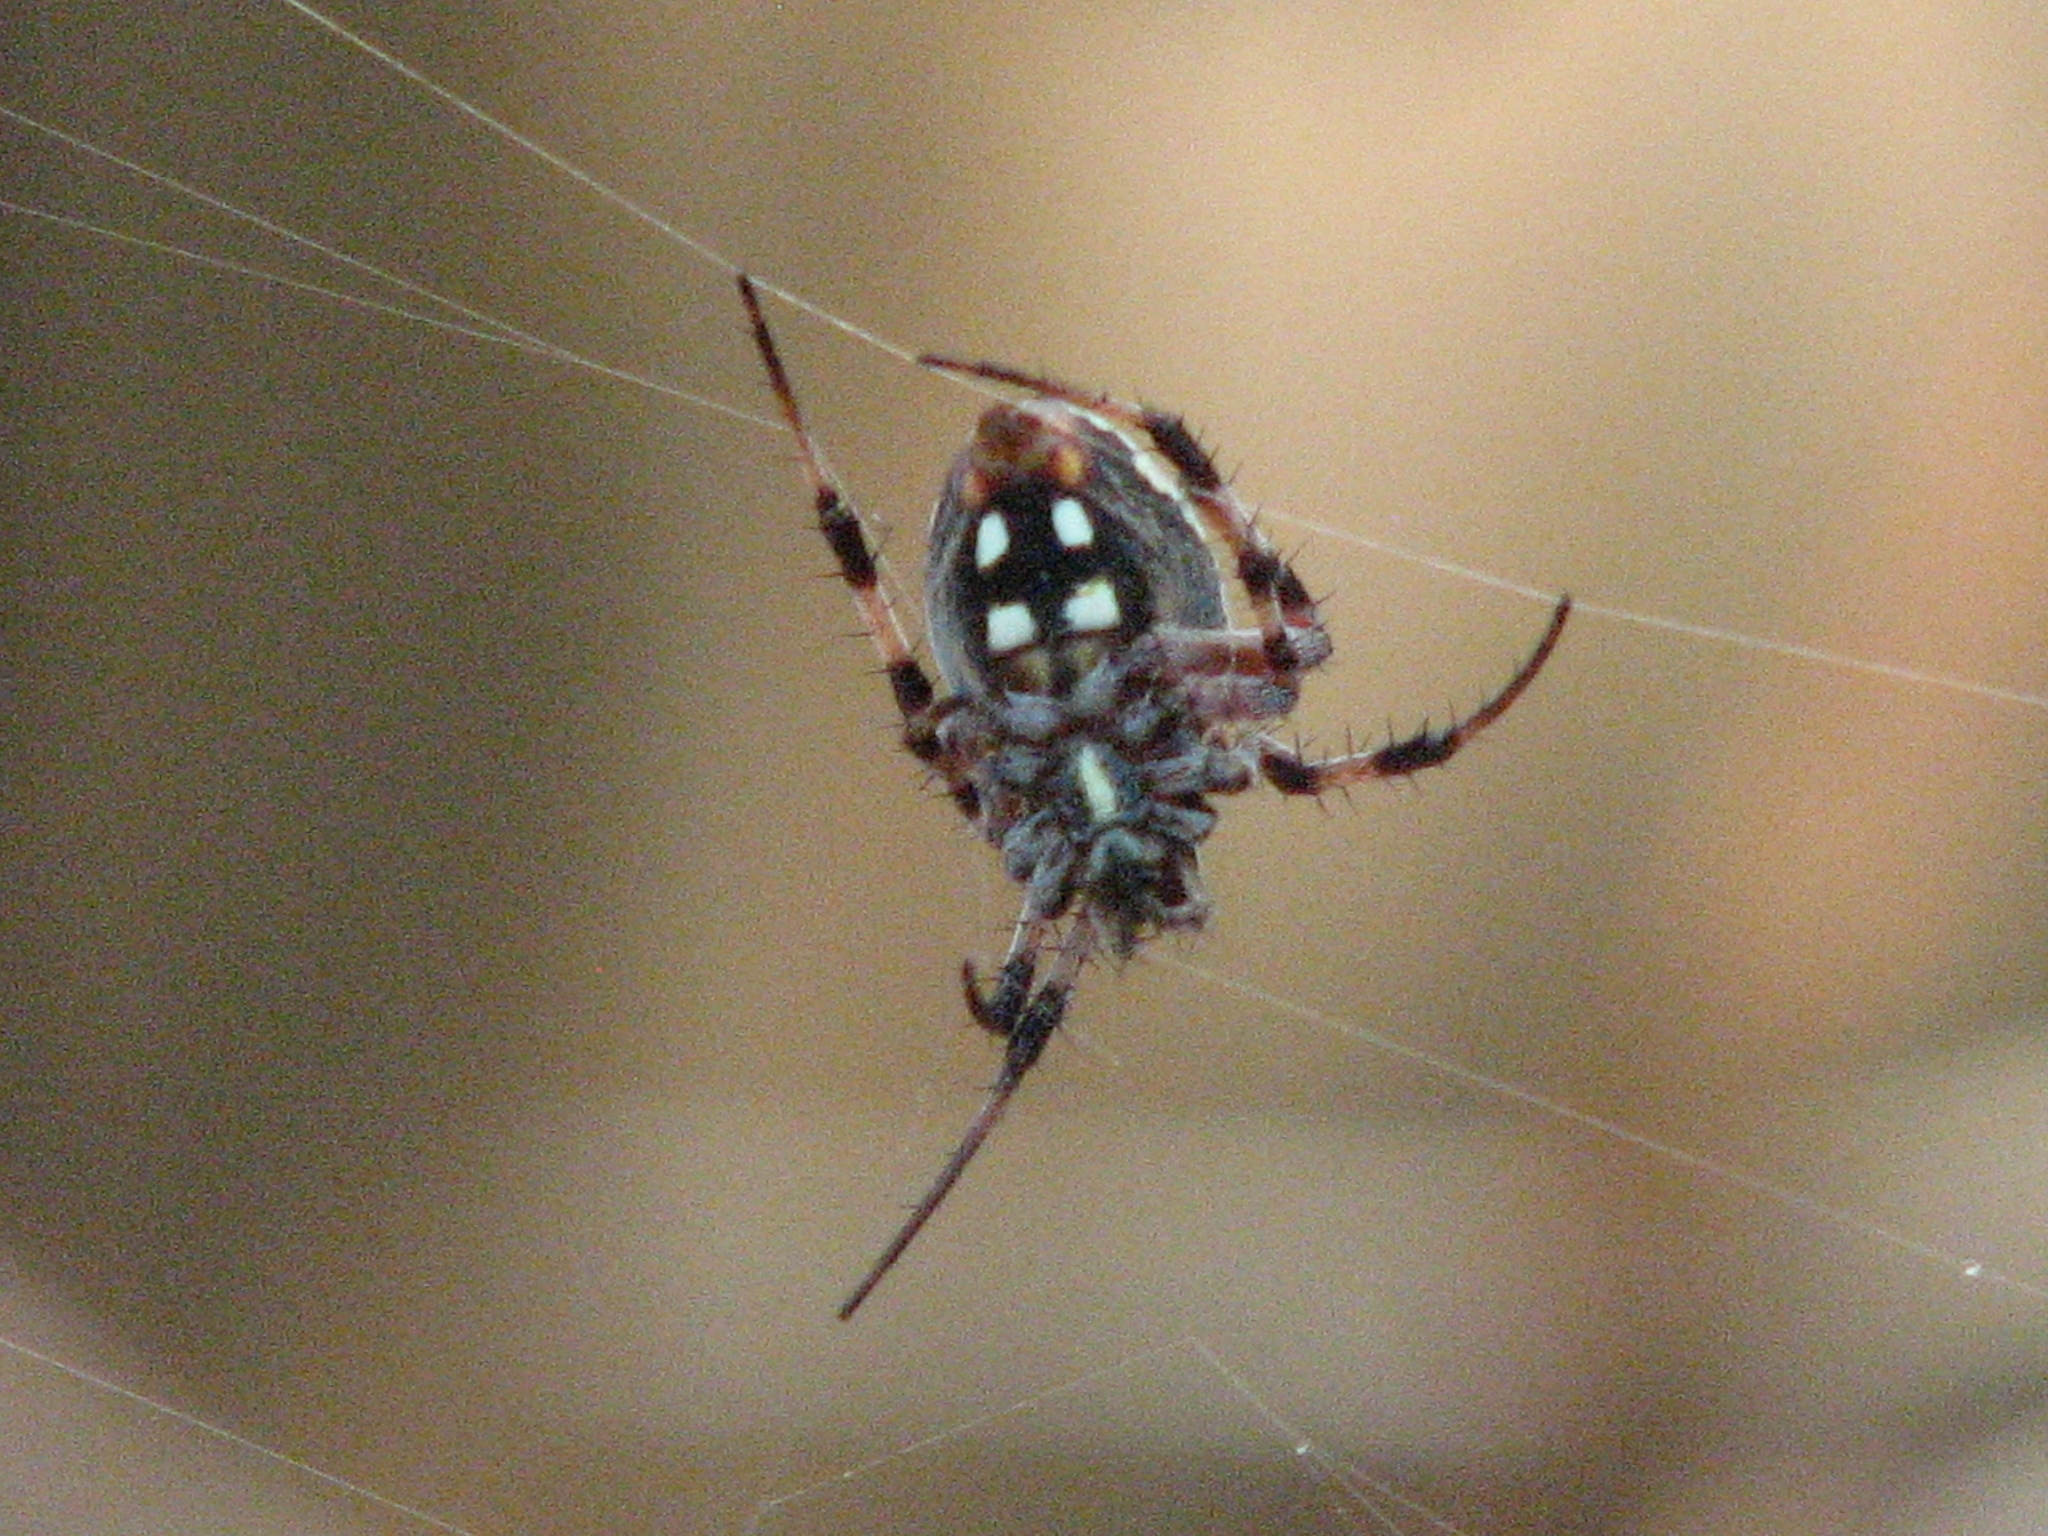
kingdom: Animalia
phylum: Arthropoda
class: Arachnida
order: Araneae
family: Araneidae
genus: Neoscona
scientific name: Neoscona oaxacensis
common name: Orb weavers
